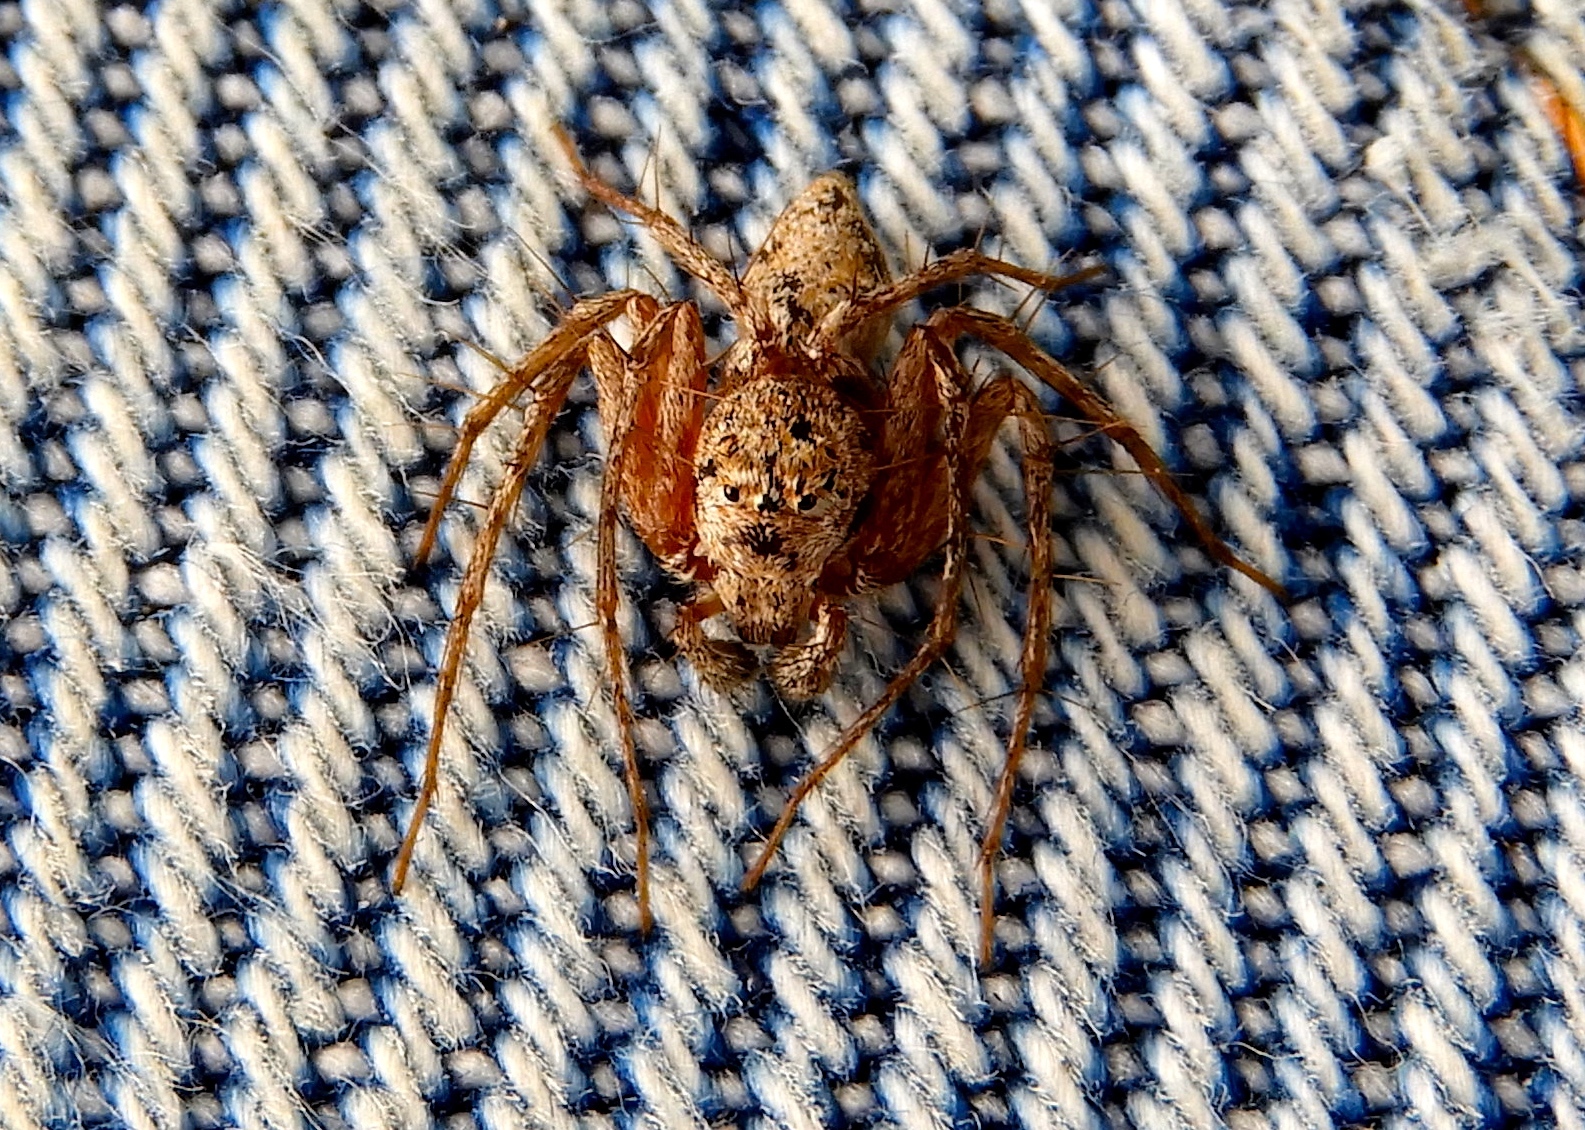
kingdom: Animalia
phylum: Arthropoda
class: Arachnida
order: Araneae
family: Oxyopidae
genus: Hamataliwa
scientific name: Hamataliwa
